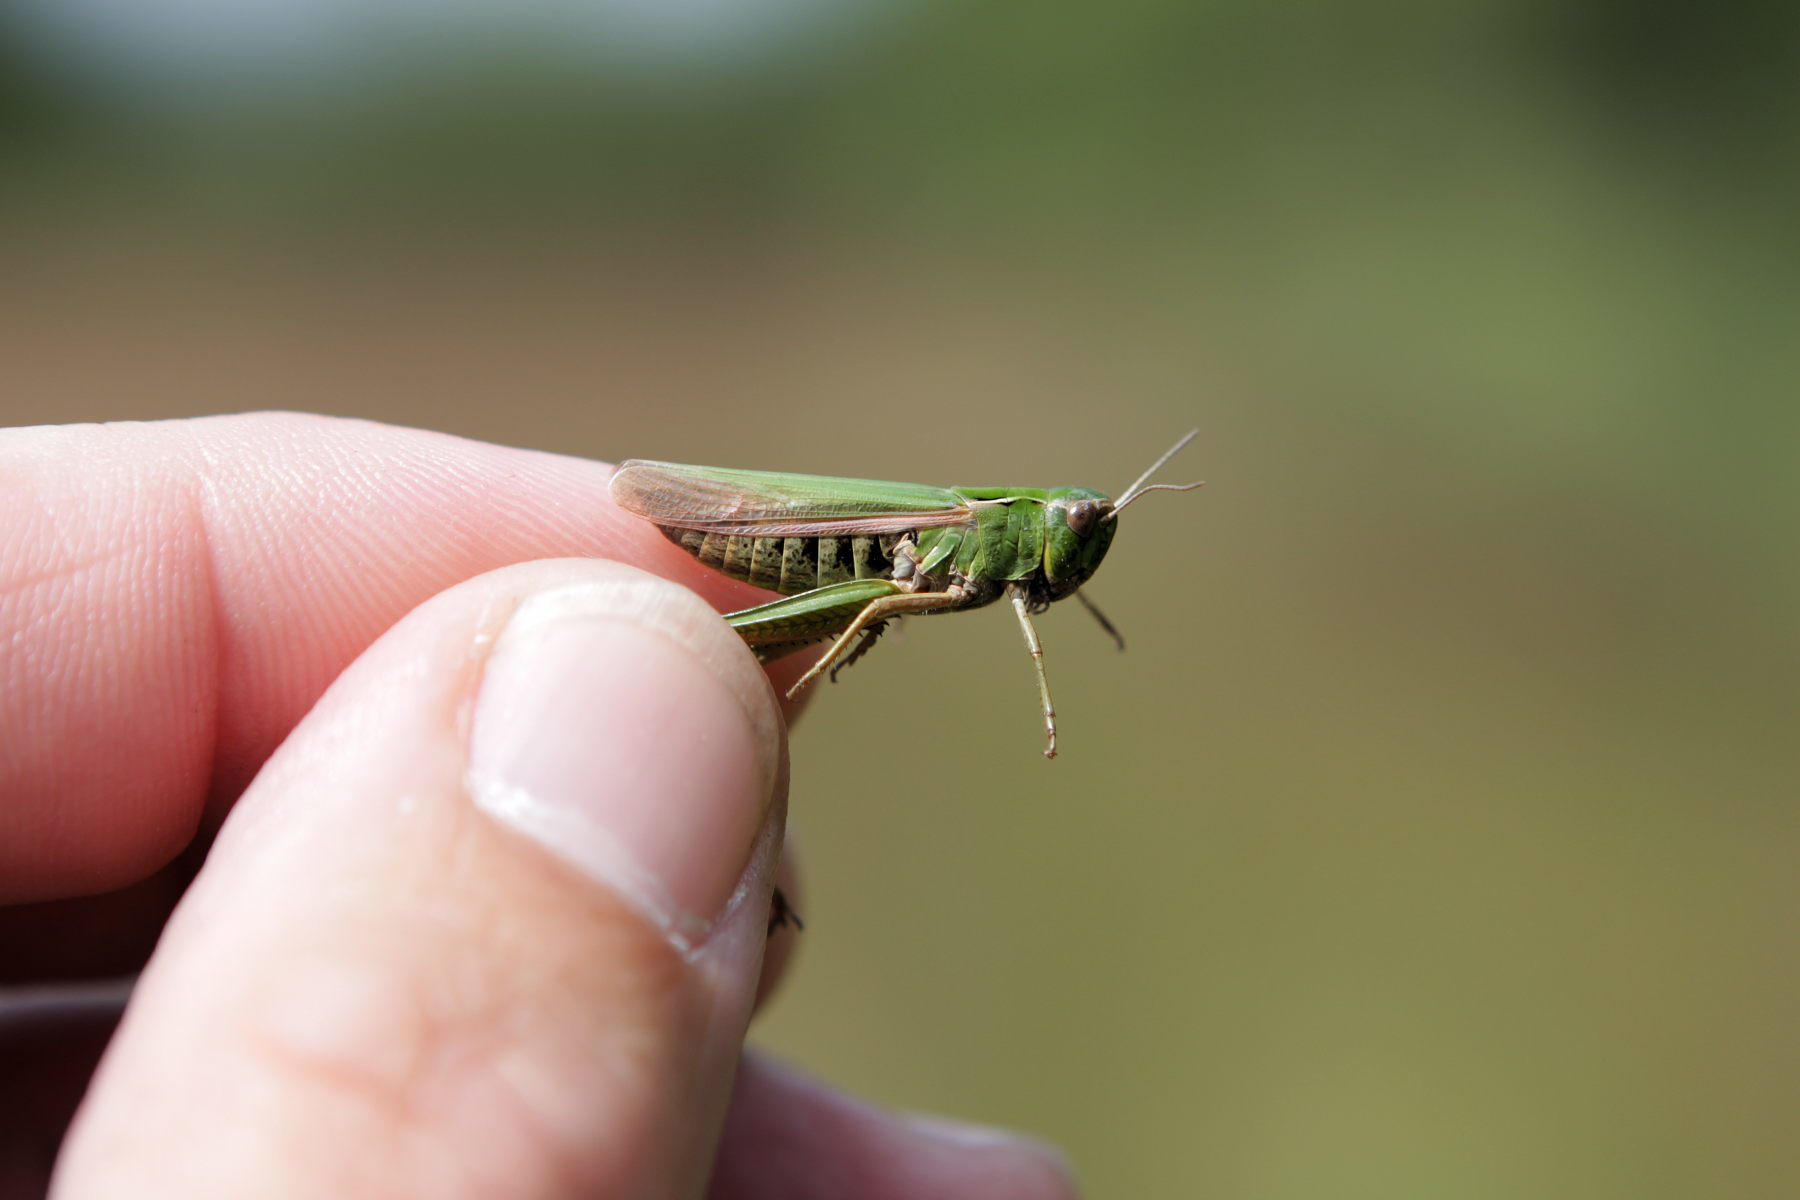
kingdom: Animalia
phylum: Arthropoda
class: Insecta
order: Orthoptera
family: Acrididae
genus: Omocestus
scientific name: Omocestus viridulus
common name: Common green grasshopper
